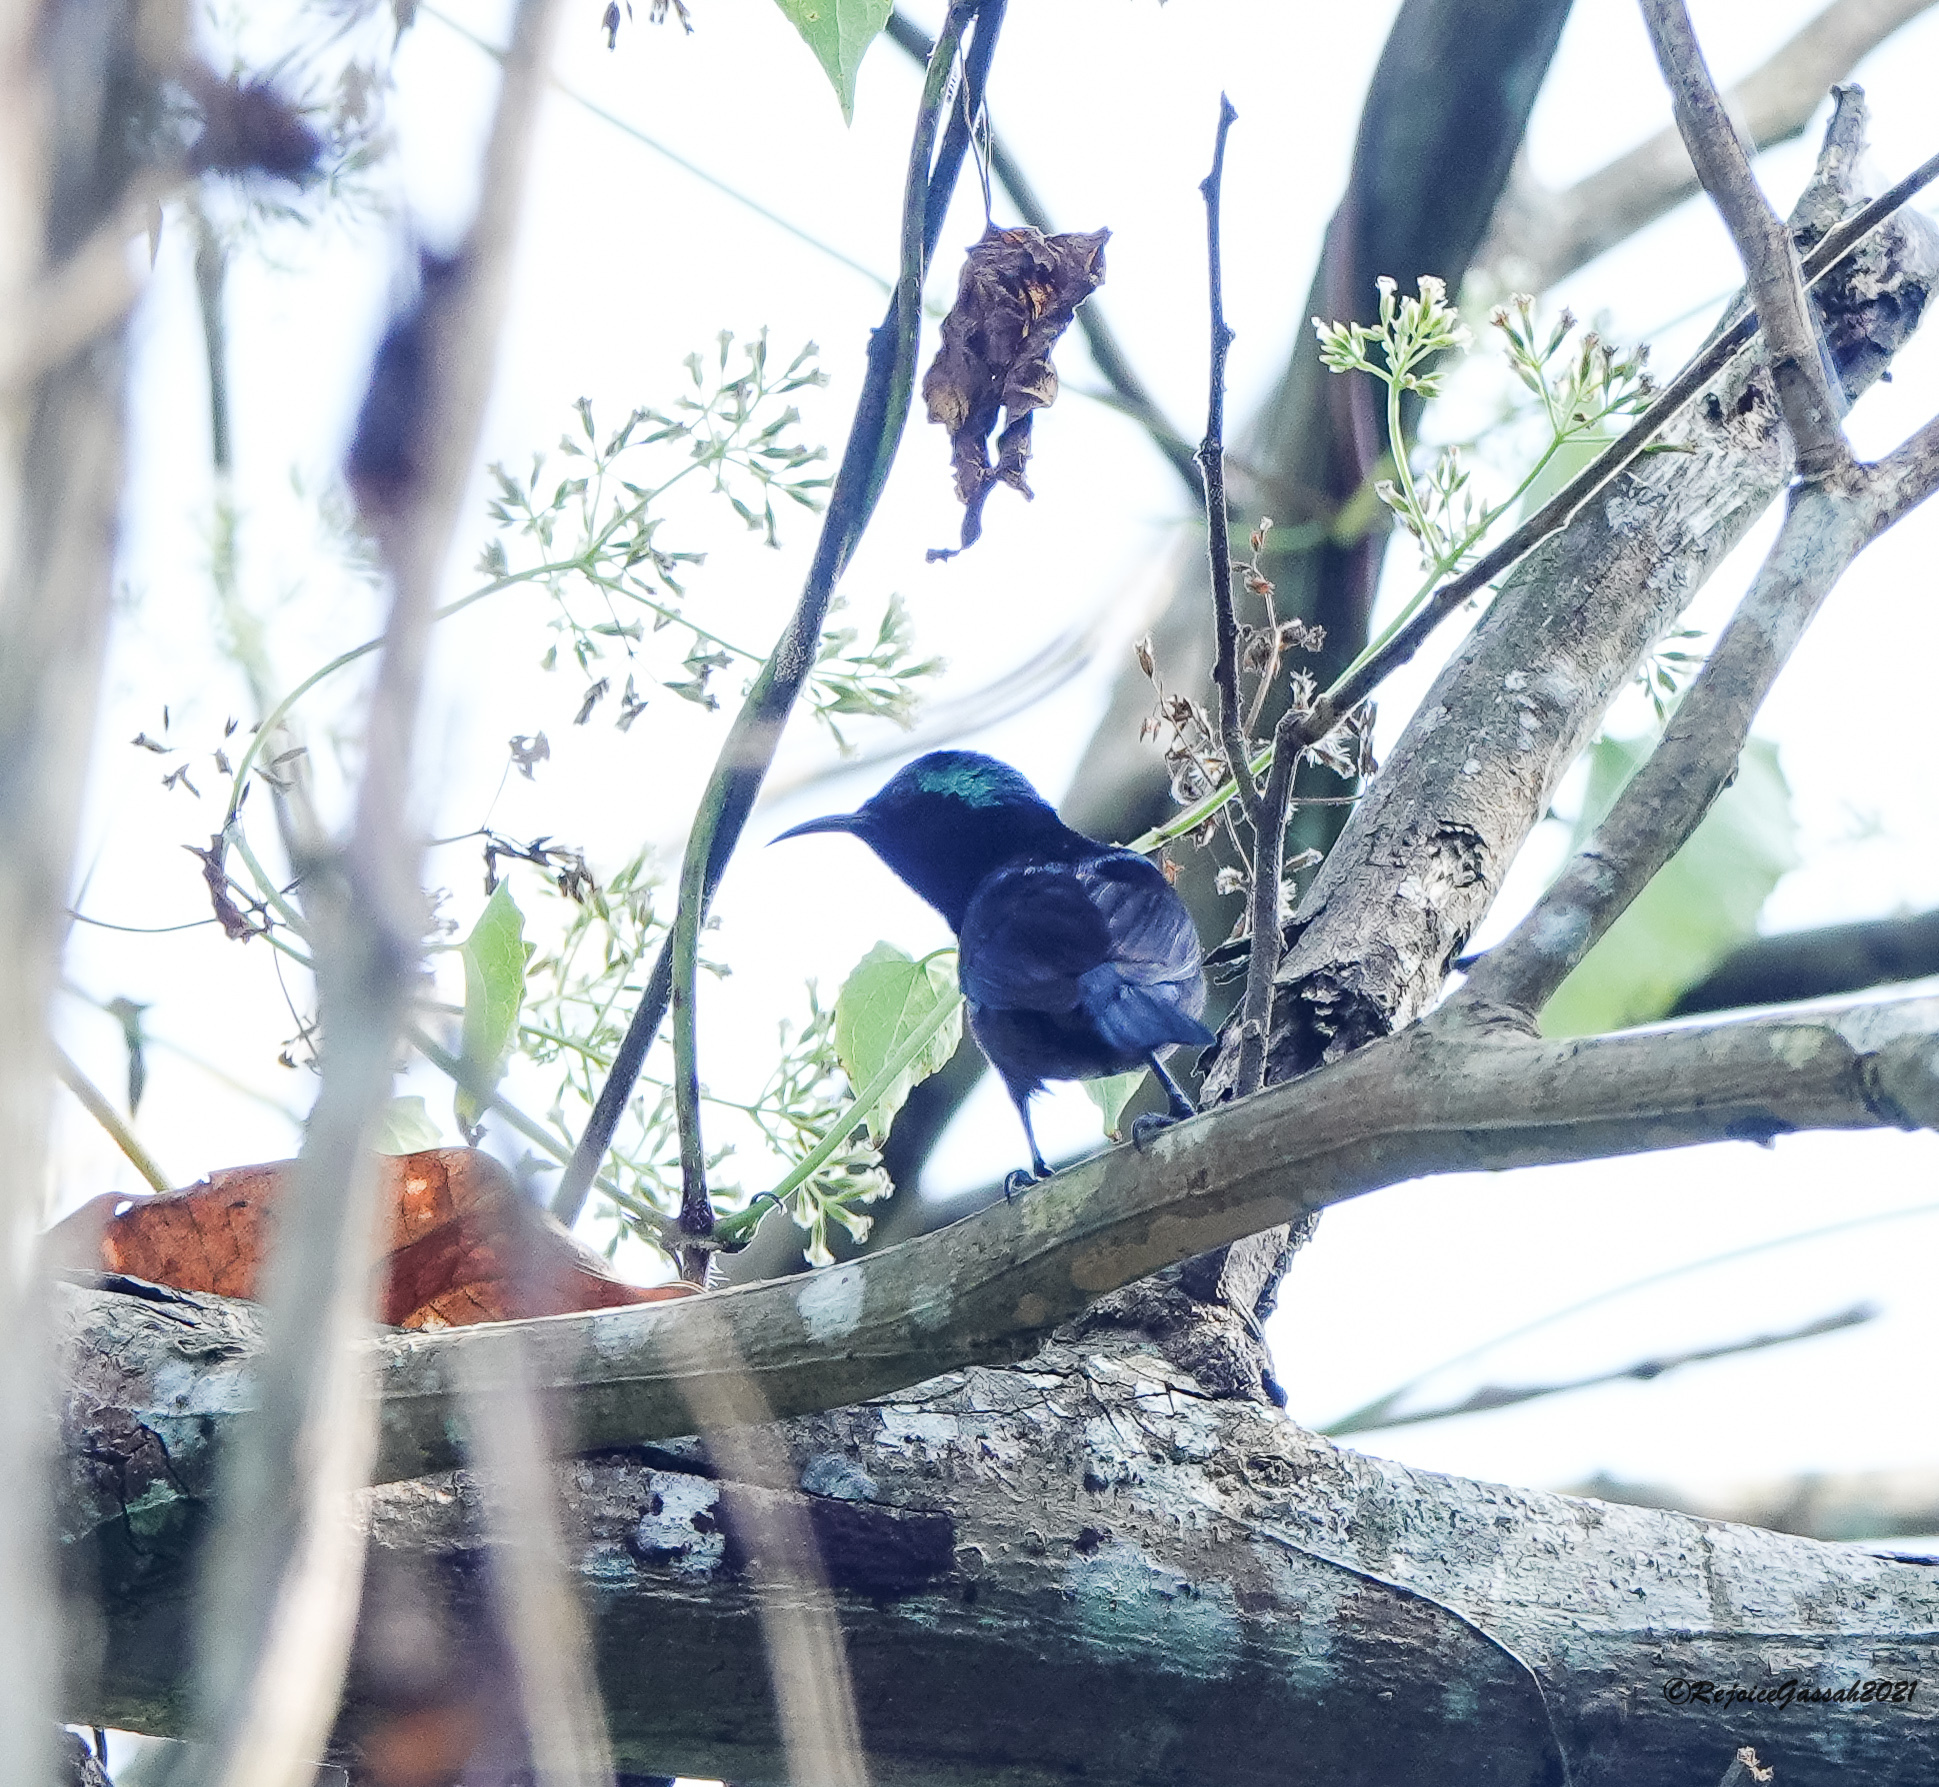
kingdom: Animalia
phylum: Chordata
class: Aves
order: Passeriformes
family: Nectariniidae
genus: Leptocoma
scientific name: Leptocoma brasiliana
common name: Van hasselt's sunbird
